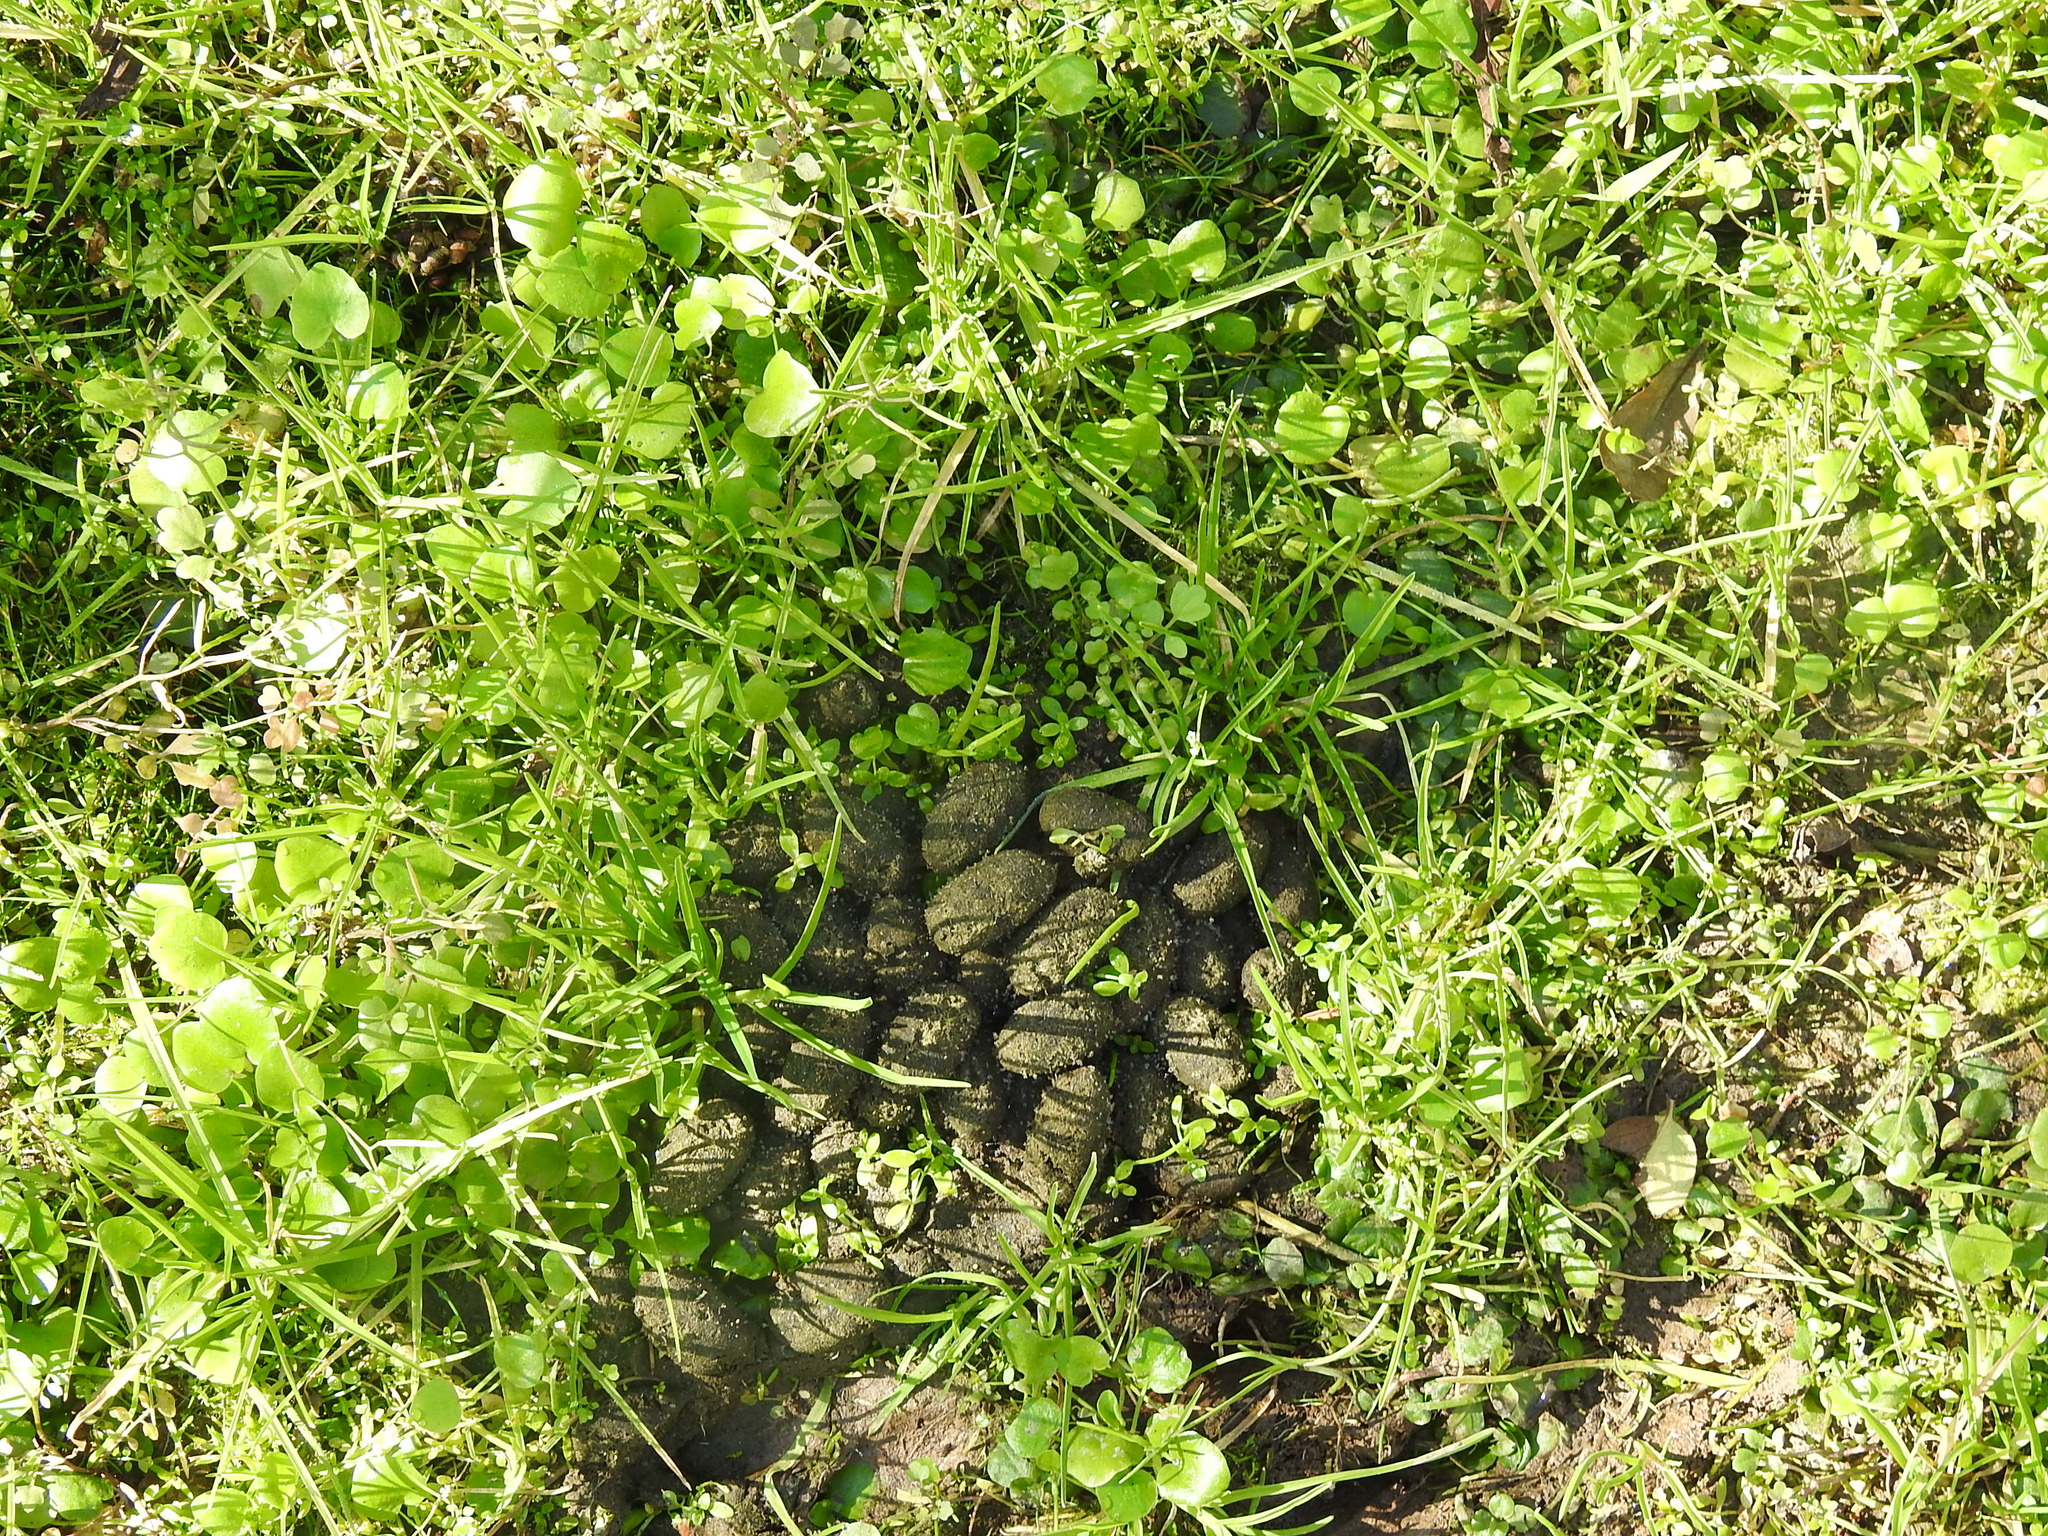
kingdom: Animalia
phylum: Chordata
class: Mammalia
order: Rodentia
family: Caviidae
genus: Hydrochoerus
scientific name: Hydrochoerus hydrochaeris
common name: Capybara
